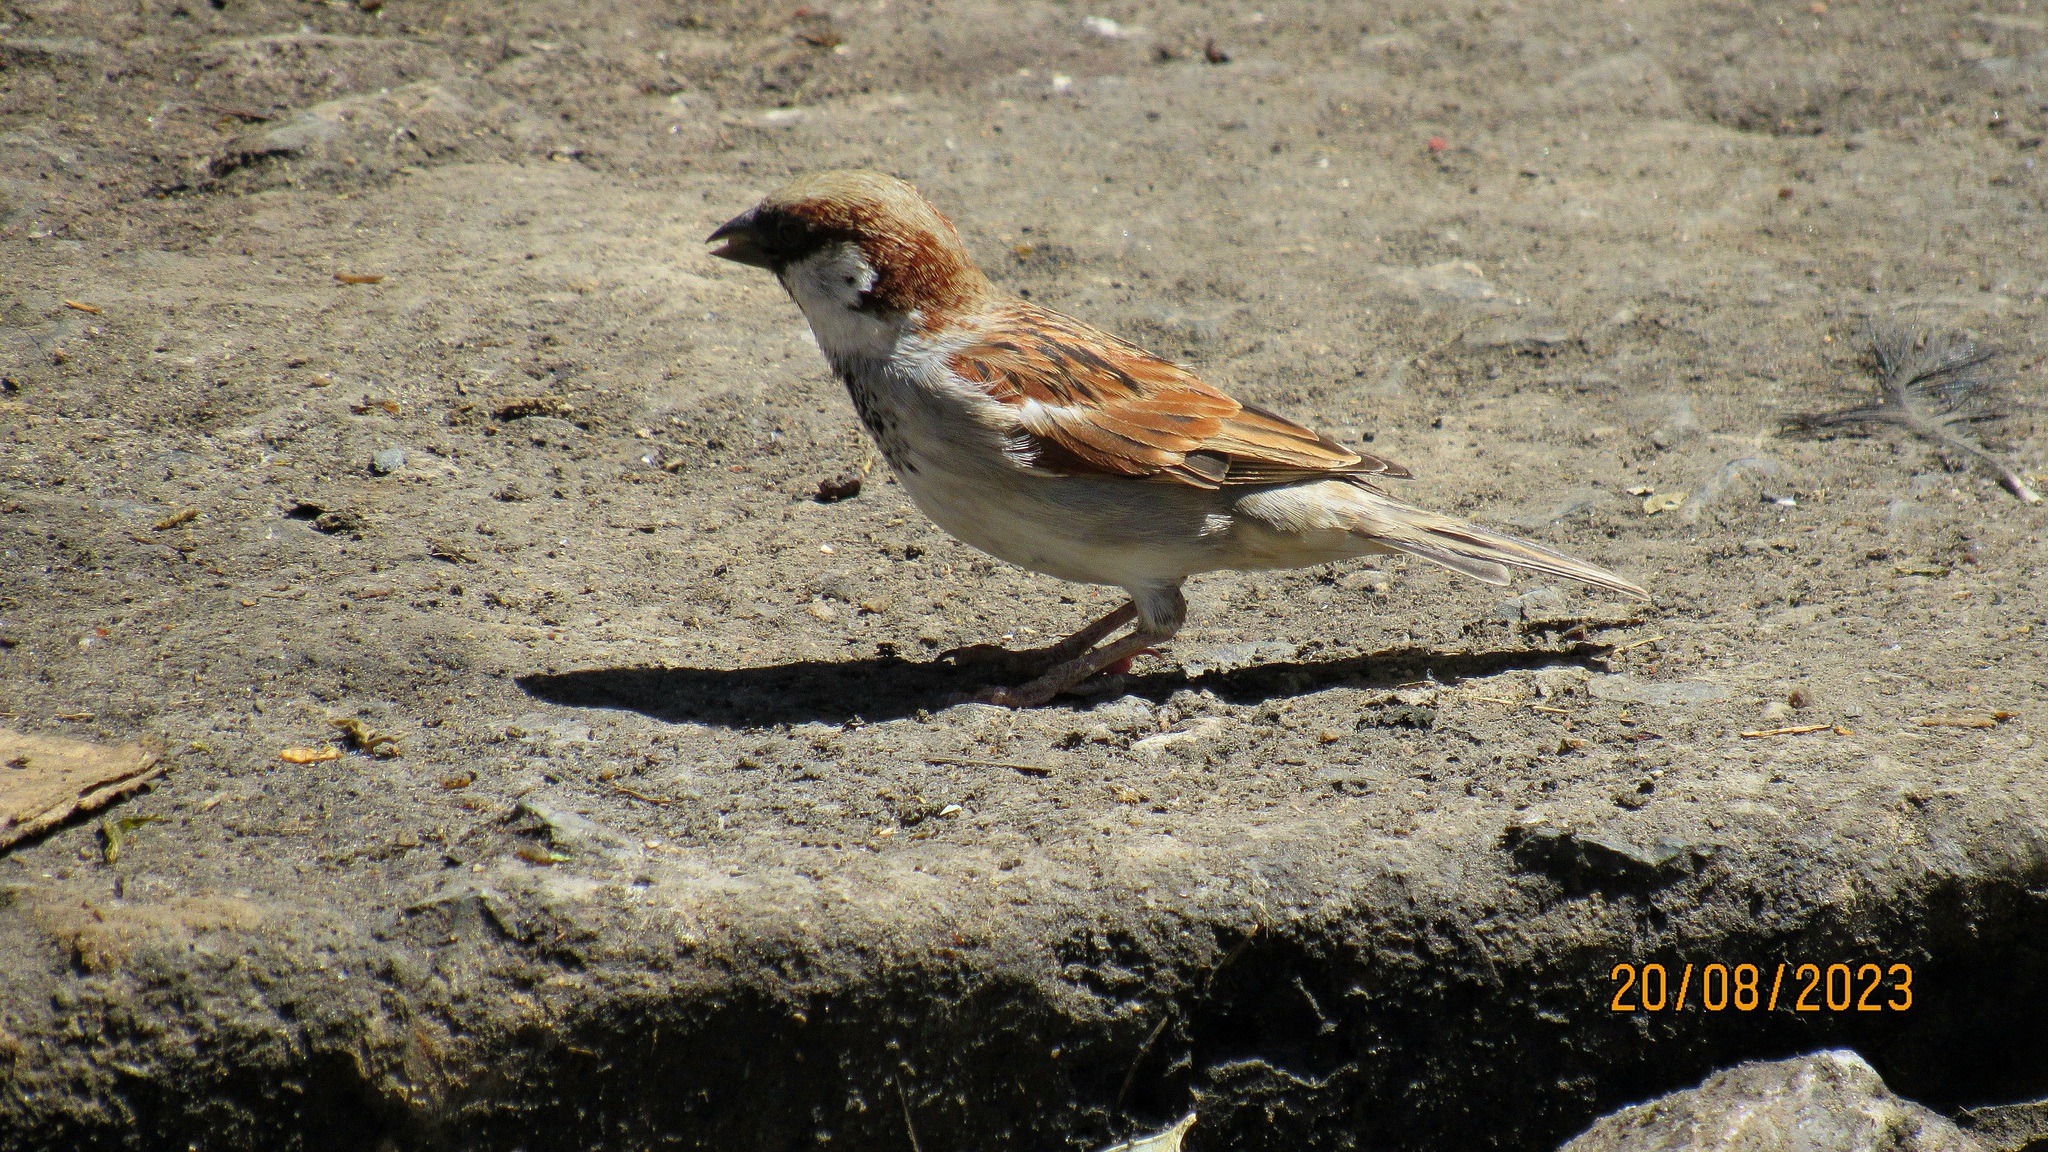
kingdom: Animalia
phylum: Chordata
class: Aves
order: Passeriformes
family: Passeridae
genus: Passer
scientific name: Passer domesticus
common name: House sparrow
